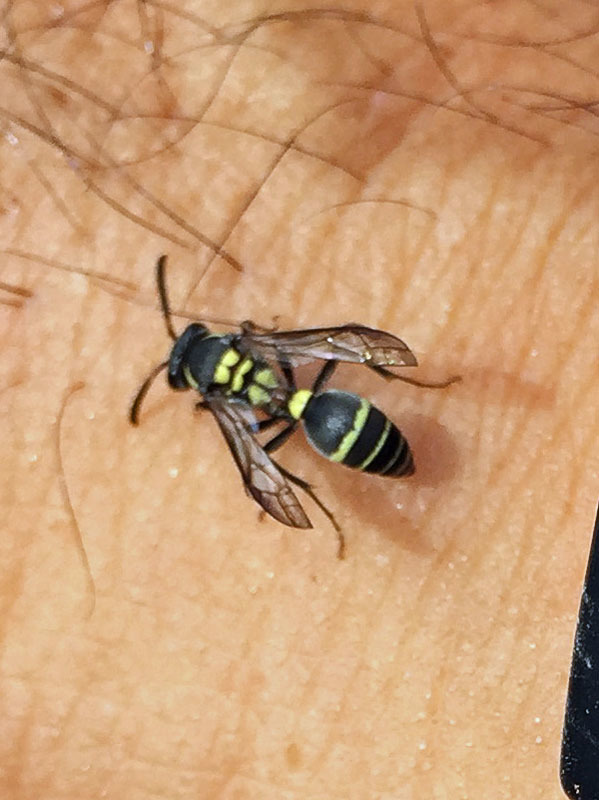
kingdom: Animalia
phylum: Arthropoda
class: Insecta
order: Hymenoptera
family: Eumenidae
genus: Polybia
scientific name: Polybia occidentalis
